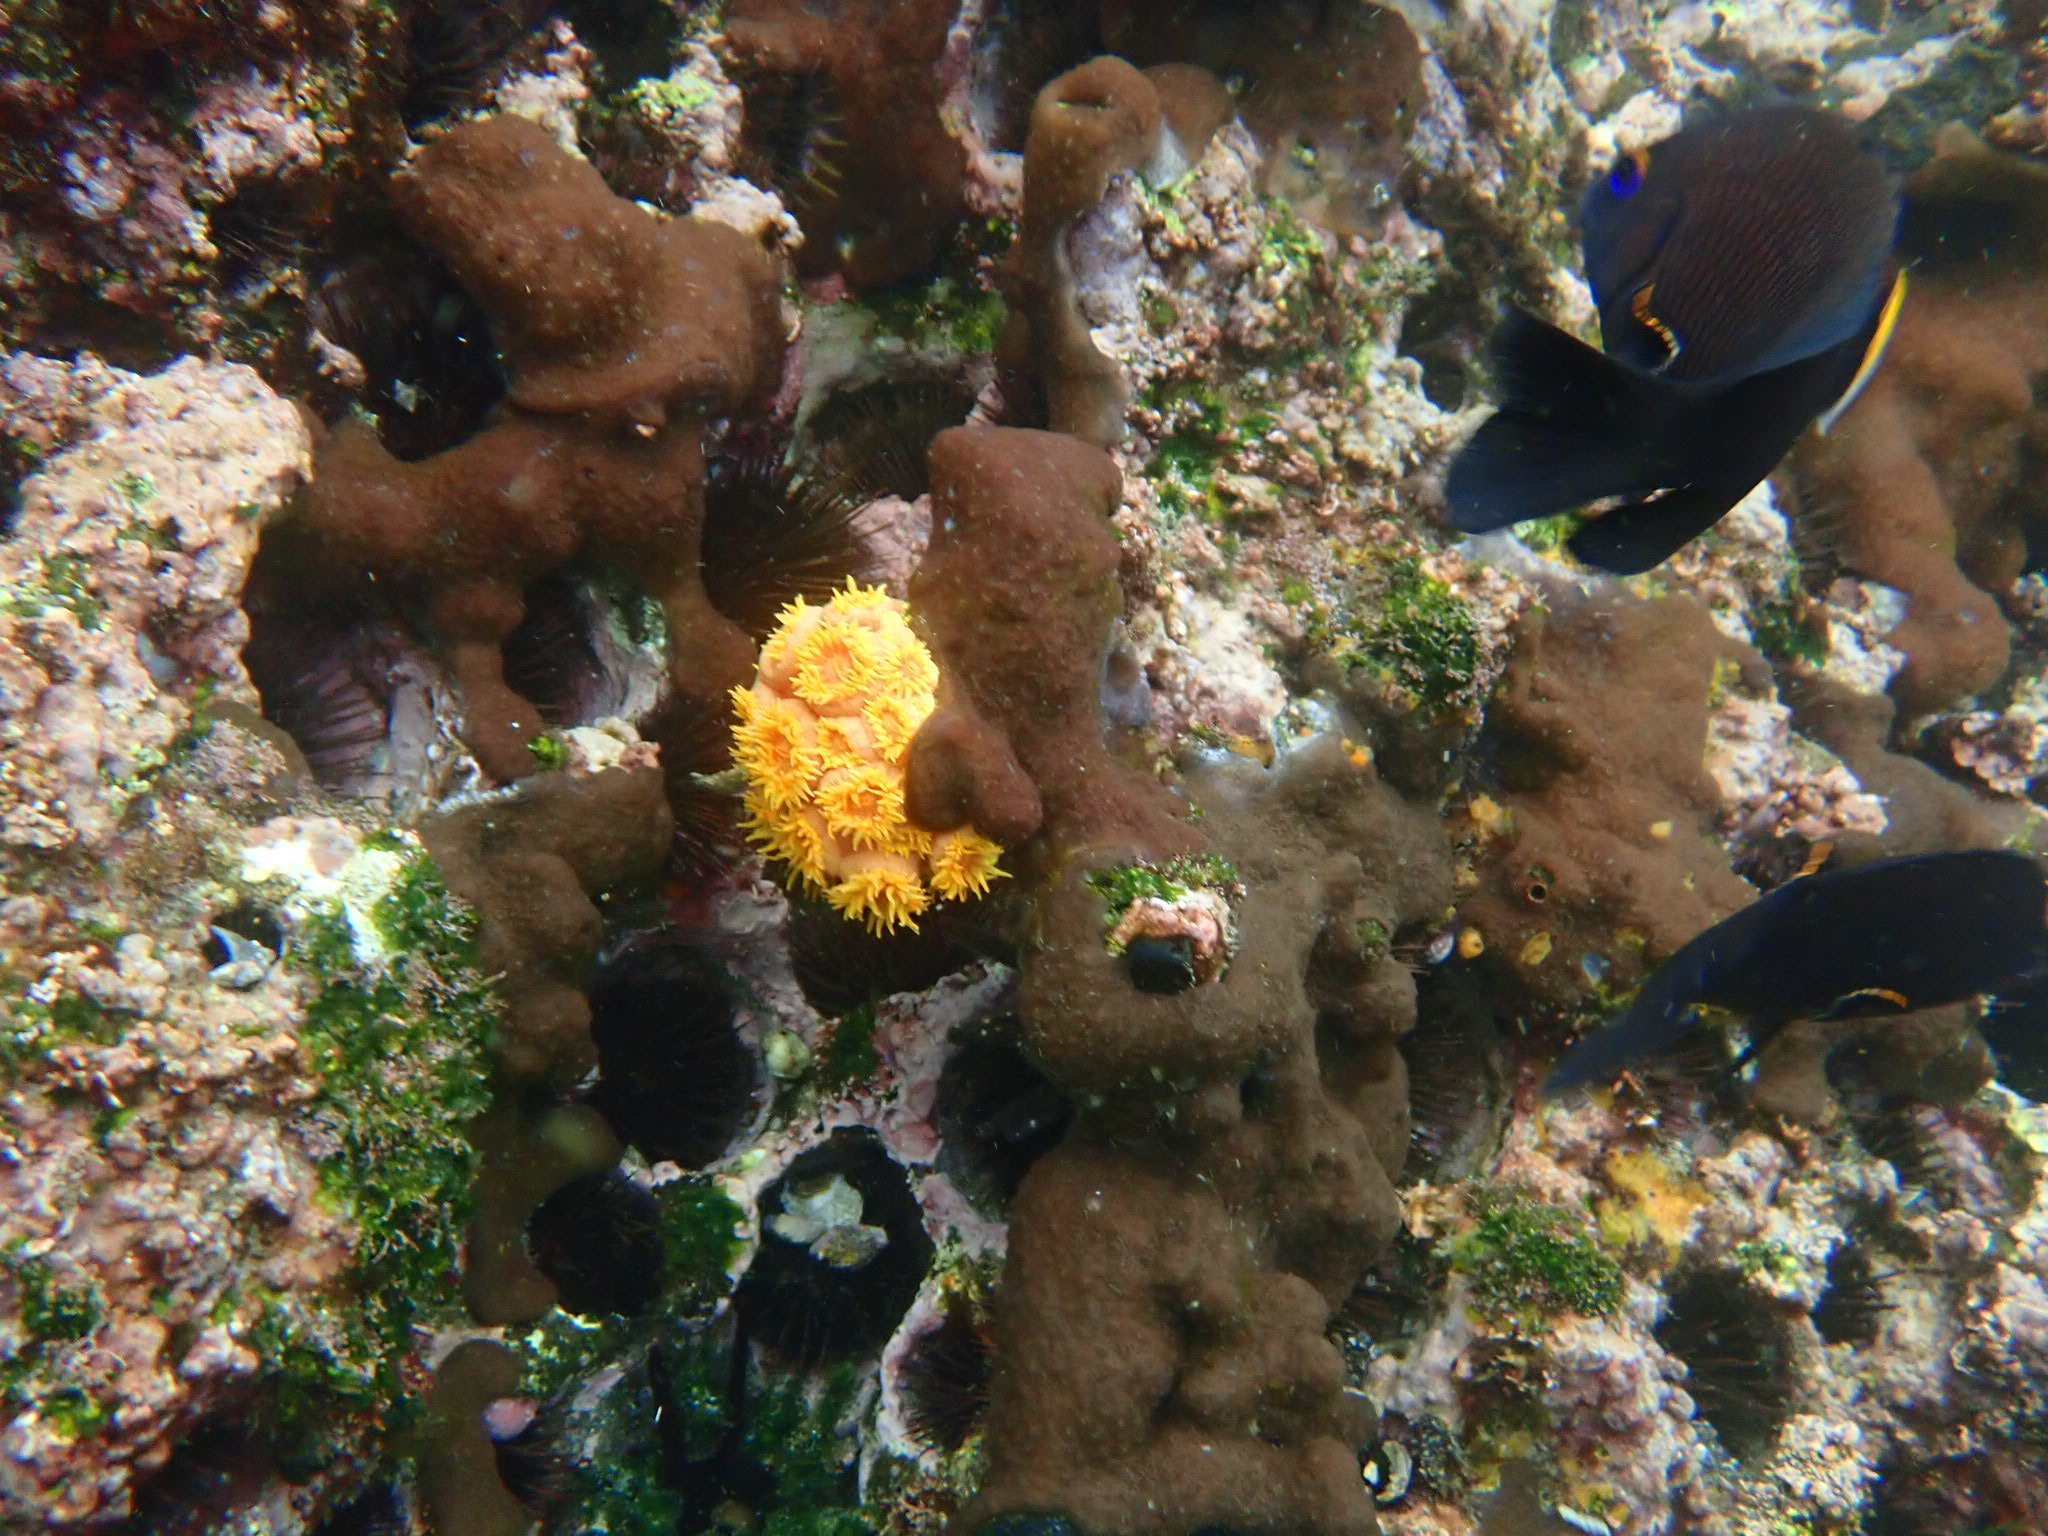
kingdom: Animalia
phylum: Cnidaria
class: Anthozoa
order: Scleractinia
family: Dendrophylliidae
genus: Tubastraea
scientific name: Tubastraea coccinea
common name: Orange cup coral
